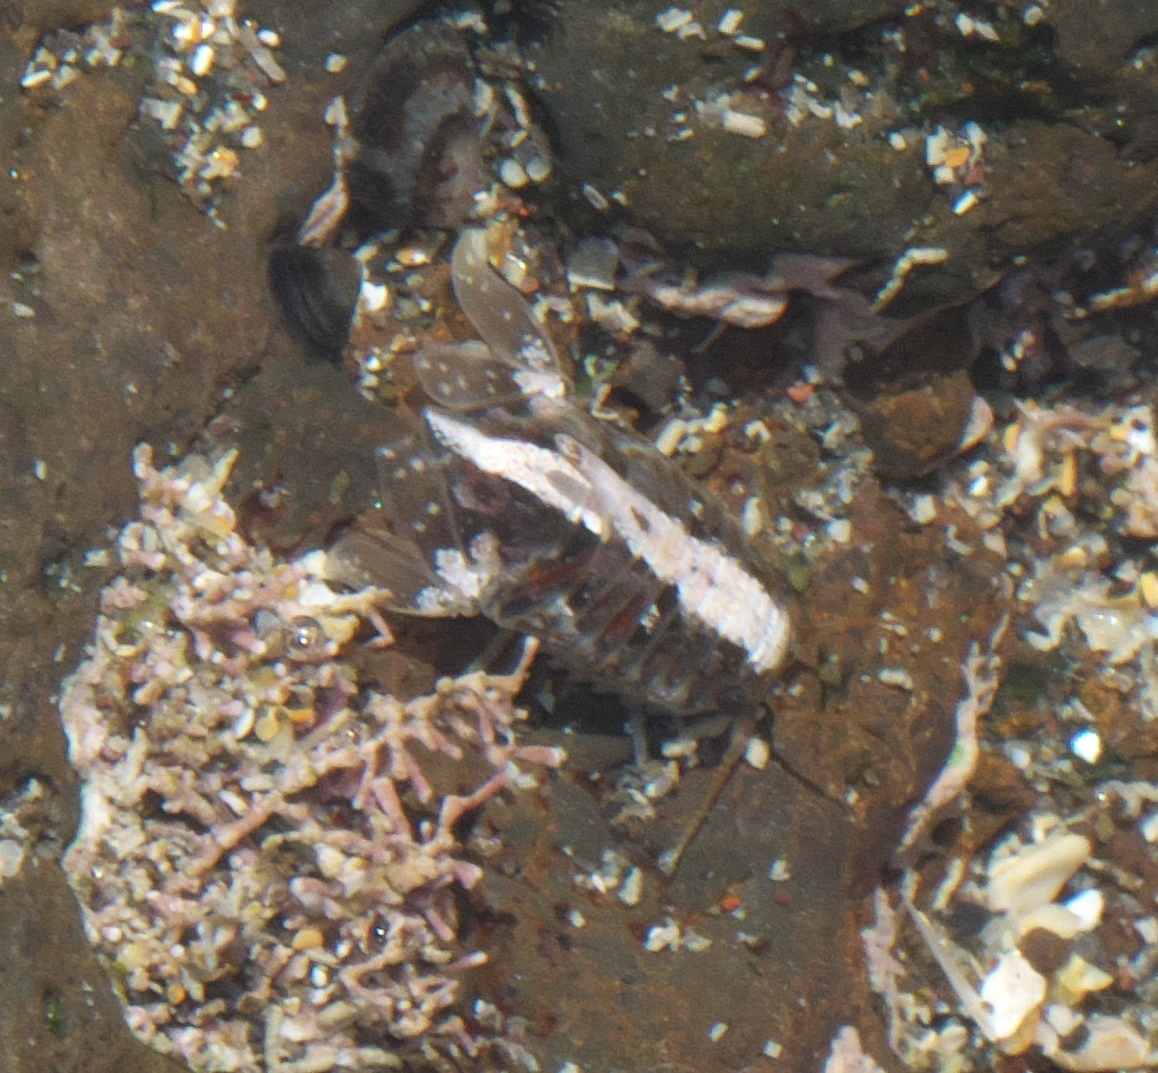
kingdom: Animalia
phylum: Arthropoda
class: Malacostraca
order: Isopoda
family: Sphaeromatidae
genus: Isocladus
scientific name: Isocladus armatus
